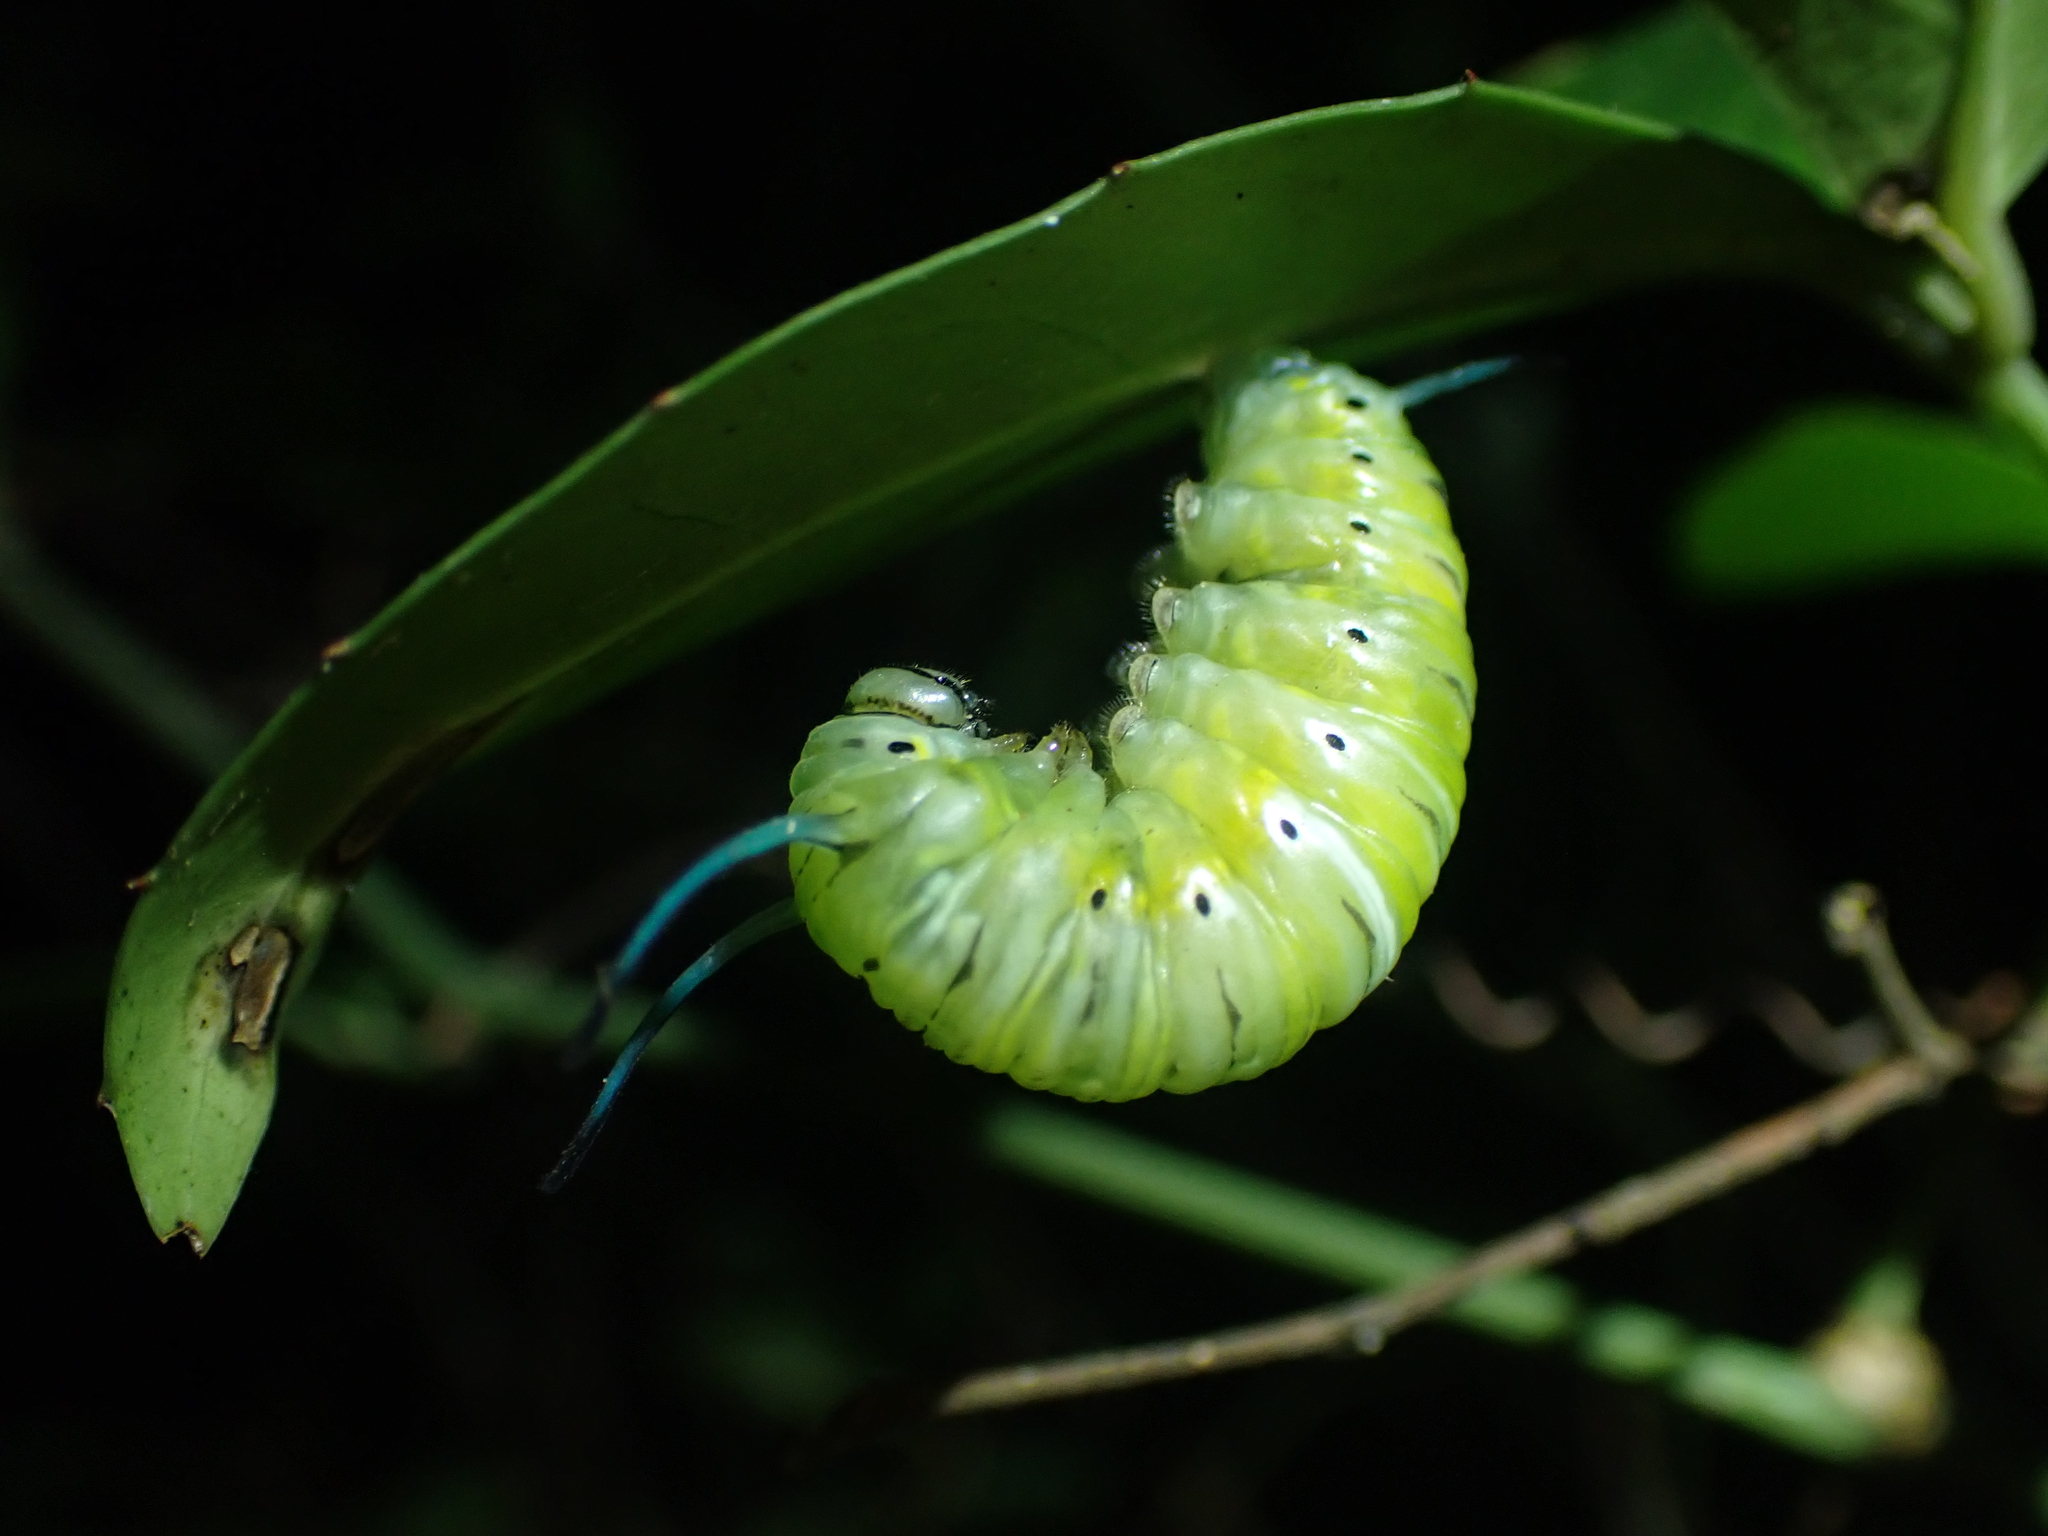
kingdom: Animalia
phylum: Arthropoda
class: Insecta
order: Lepidoptera
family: Nymphalidae
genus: Tirumala
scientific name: Tirumala limniace
